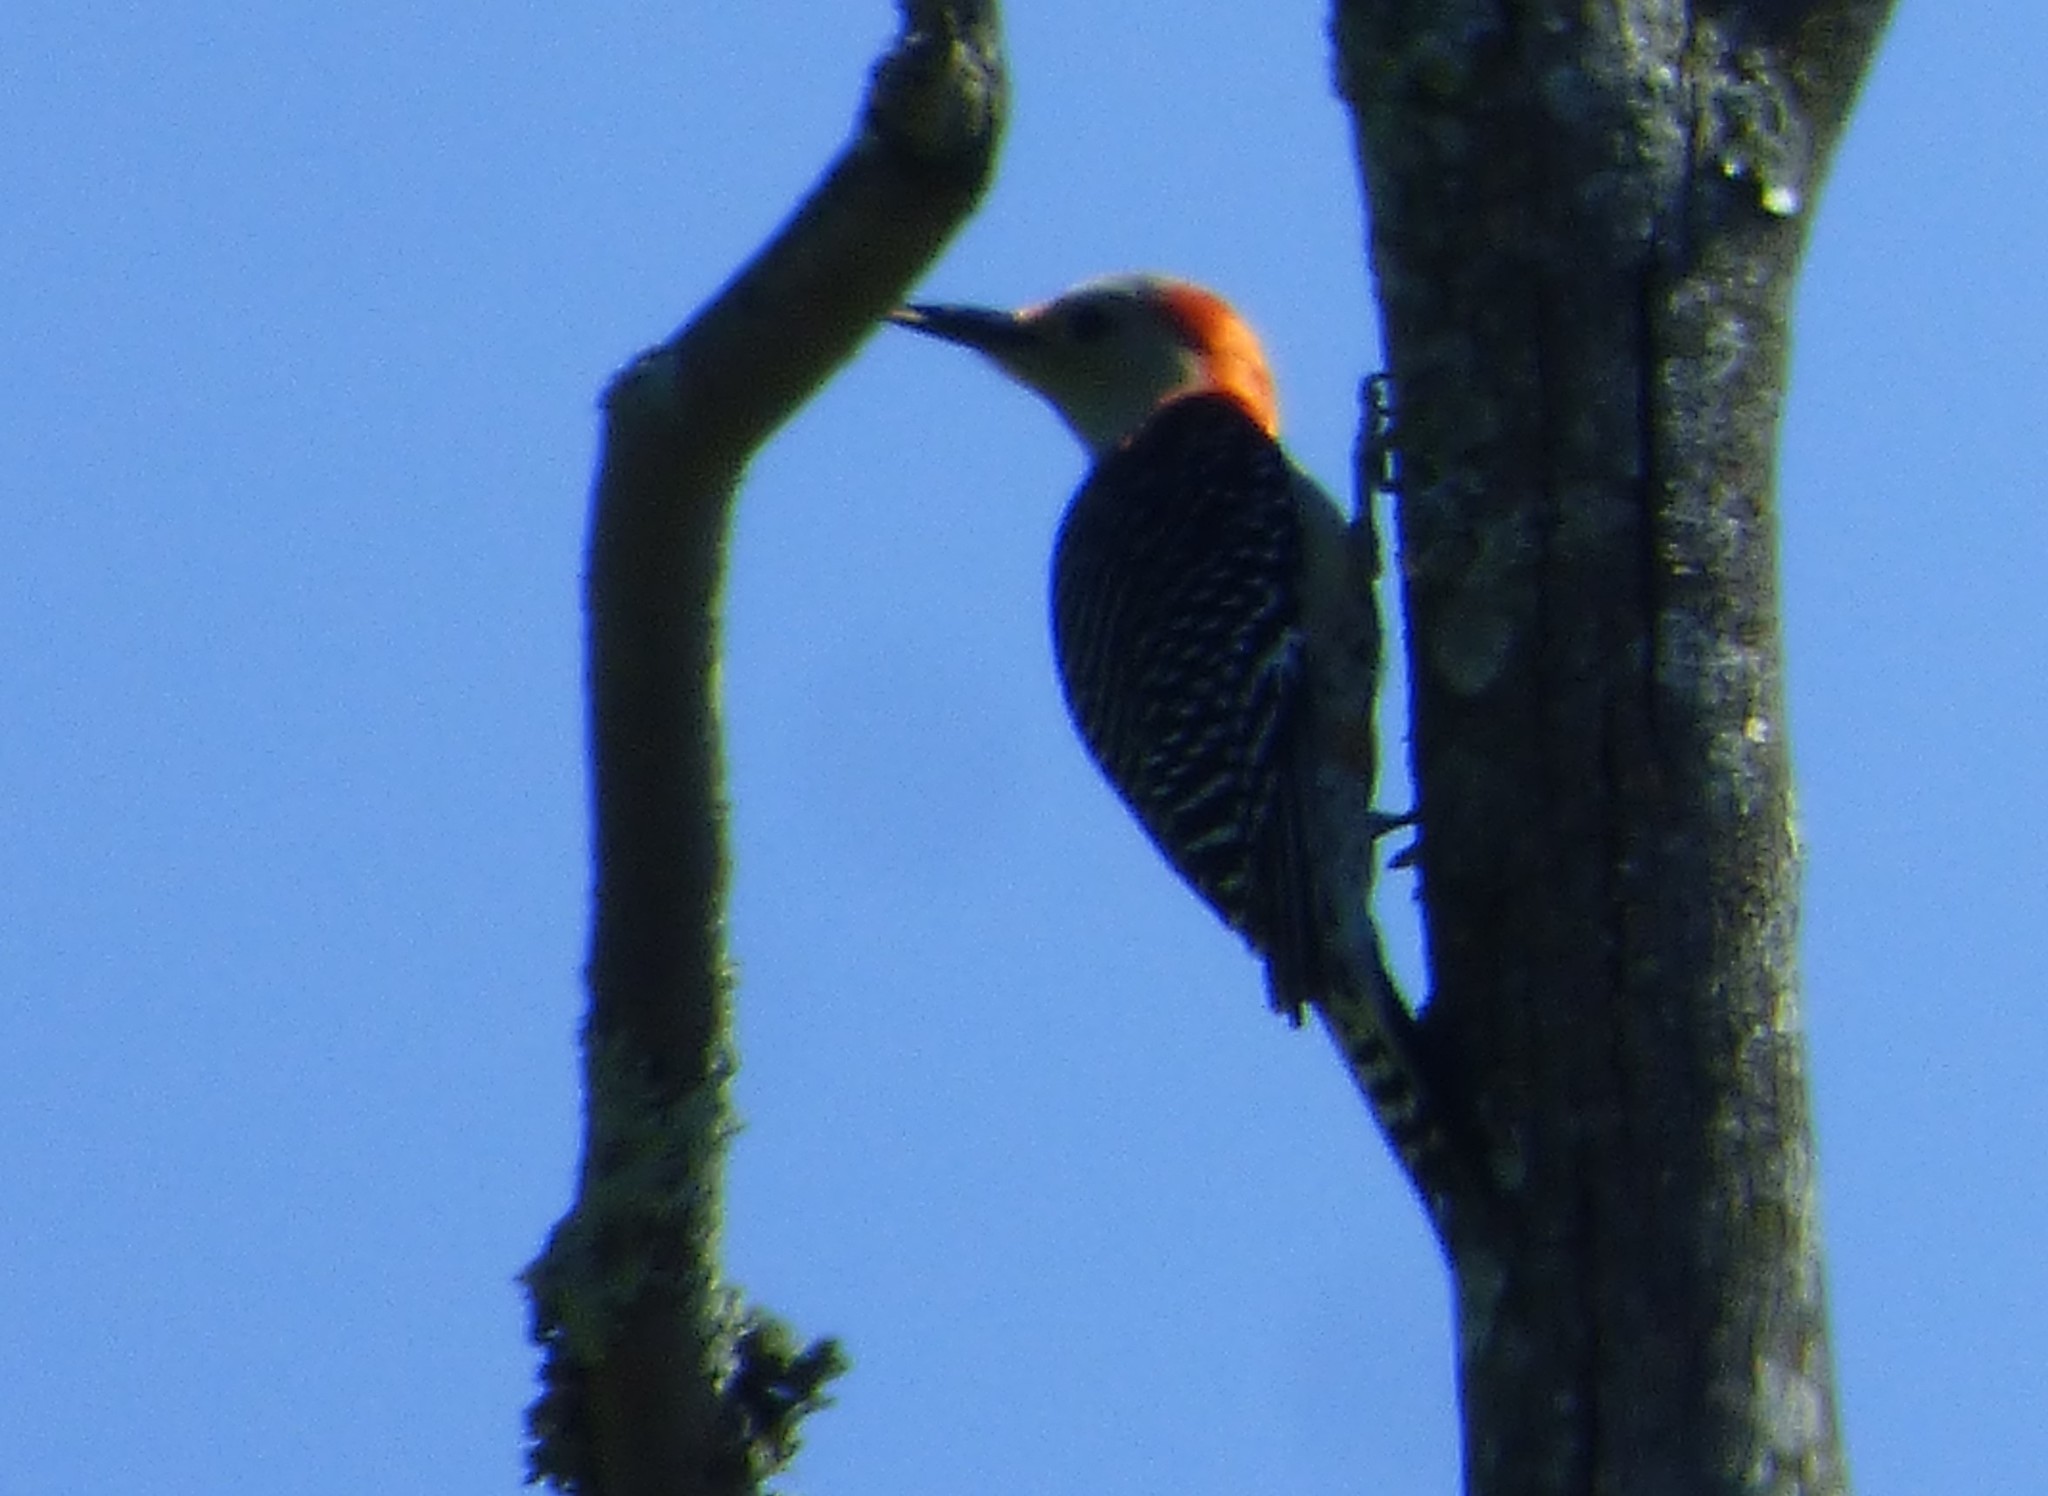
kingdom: Animalia
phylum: Chordata
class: Aves
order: Piciformes
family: Picidae
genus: Melanerpes
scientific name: Melanerpes carolinus
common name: Red-bellied woodpecker
